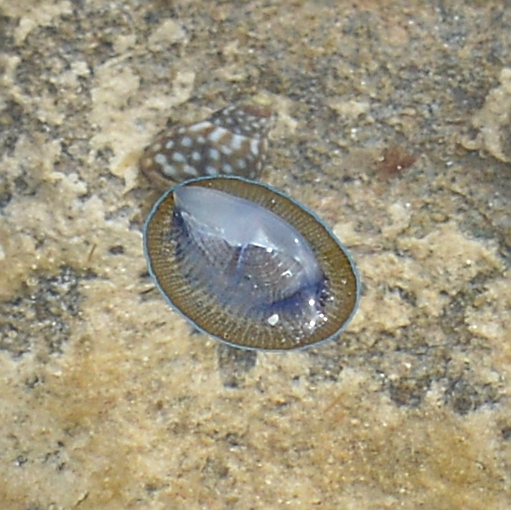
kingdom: Animalia
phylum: Cnidaria
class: Hydrozoa
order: Anthoathecata
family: Porpitidae
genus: Velella
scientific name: Velella velella
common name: By-the-wind-sailor
